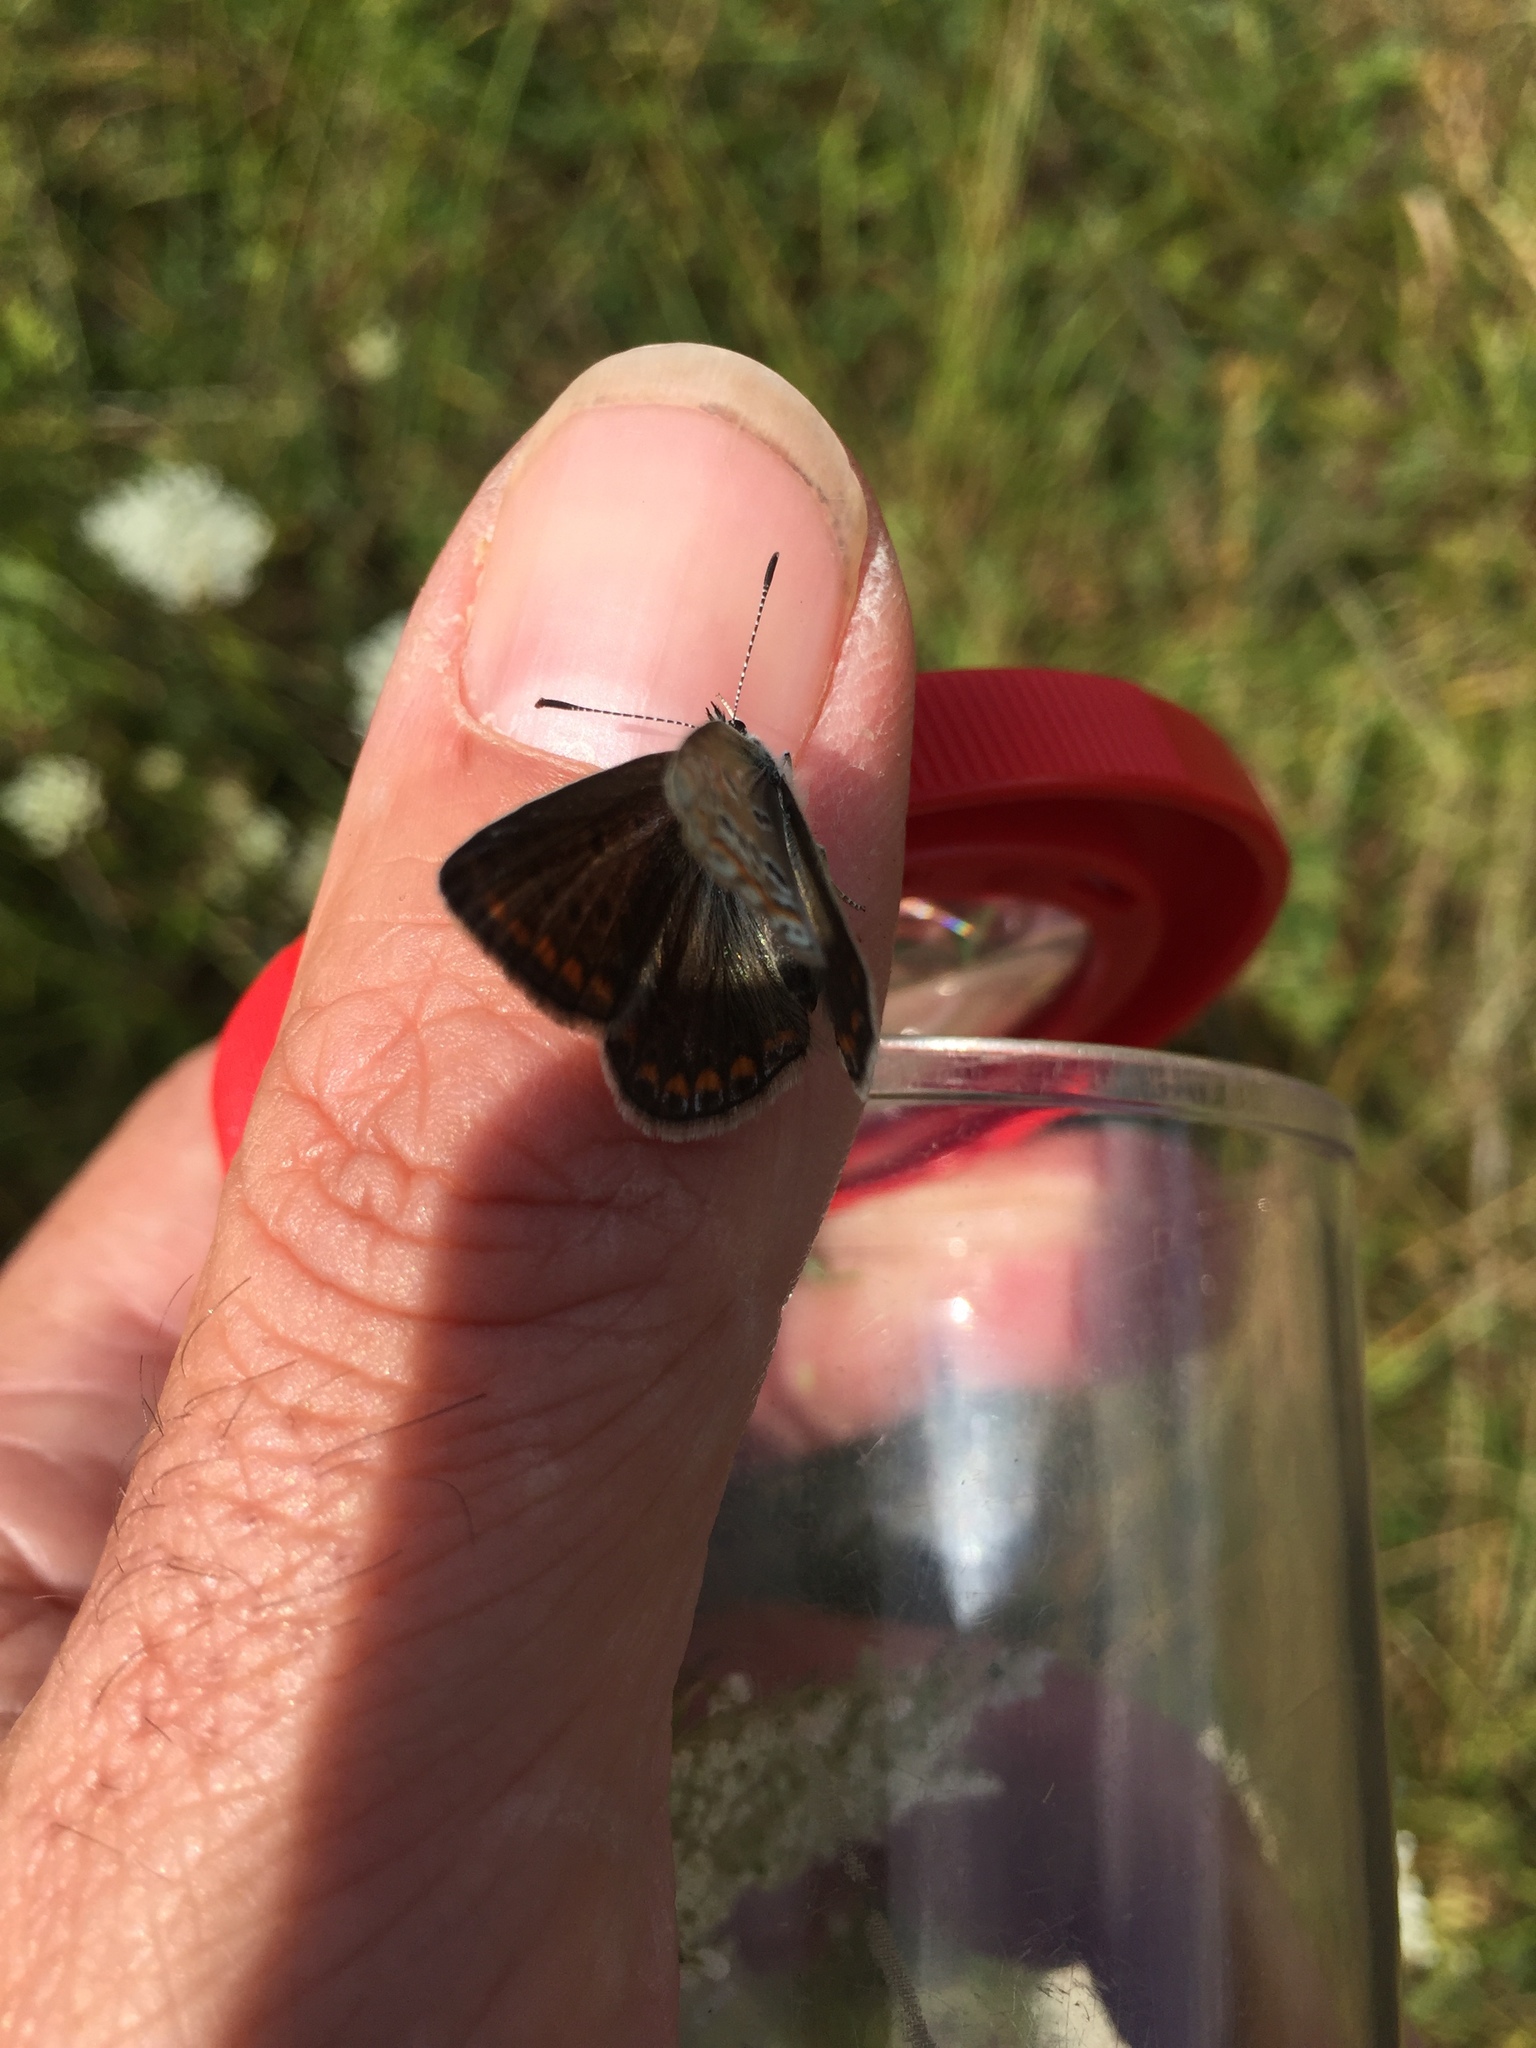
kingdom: Animalia
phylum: Arthropoda
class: Insecta
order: Lepidoptera
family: Lycaenidae
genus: Polyommatus
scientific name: Polyommatus icarus
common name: Common blue
